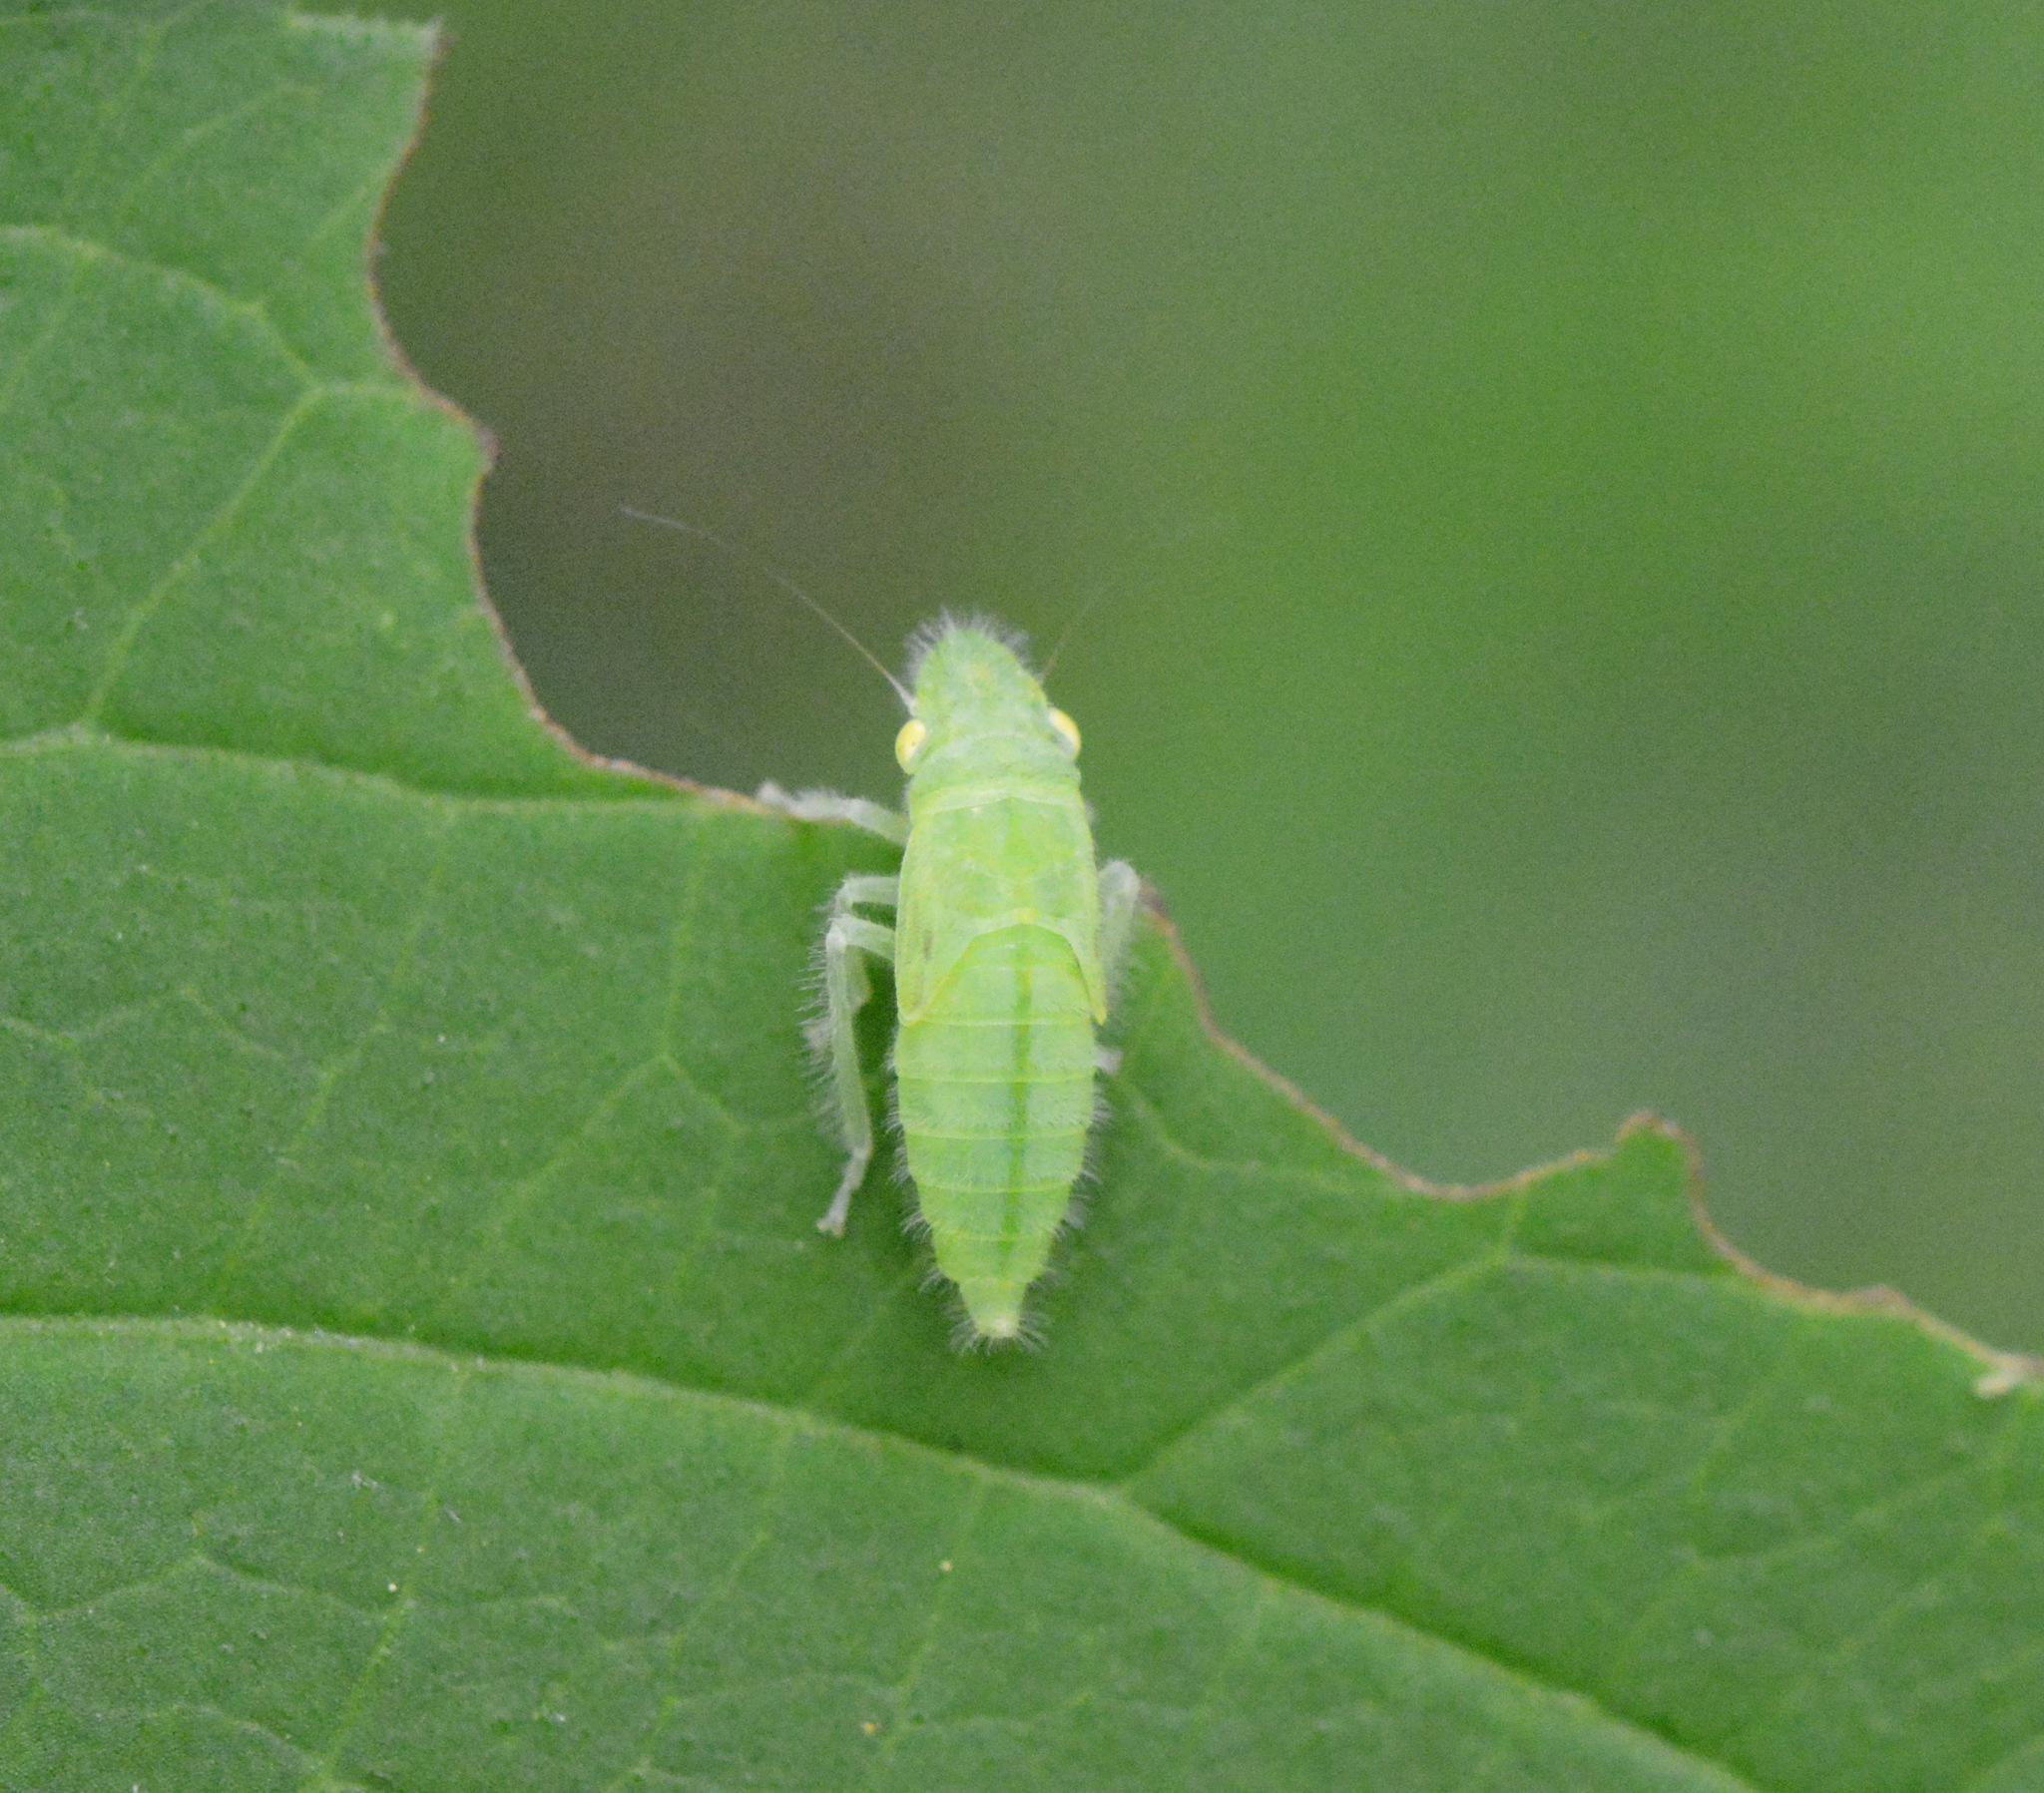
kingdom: Animalia
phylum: Arthropoda
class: Insecta
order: Hemiptera
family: Cicadellidae
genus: Paraulacizes
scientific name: Paraulacizes irrorata
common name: Speckled sharpshooter
